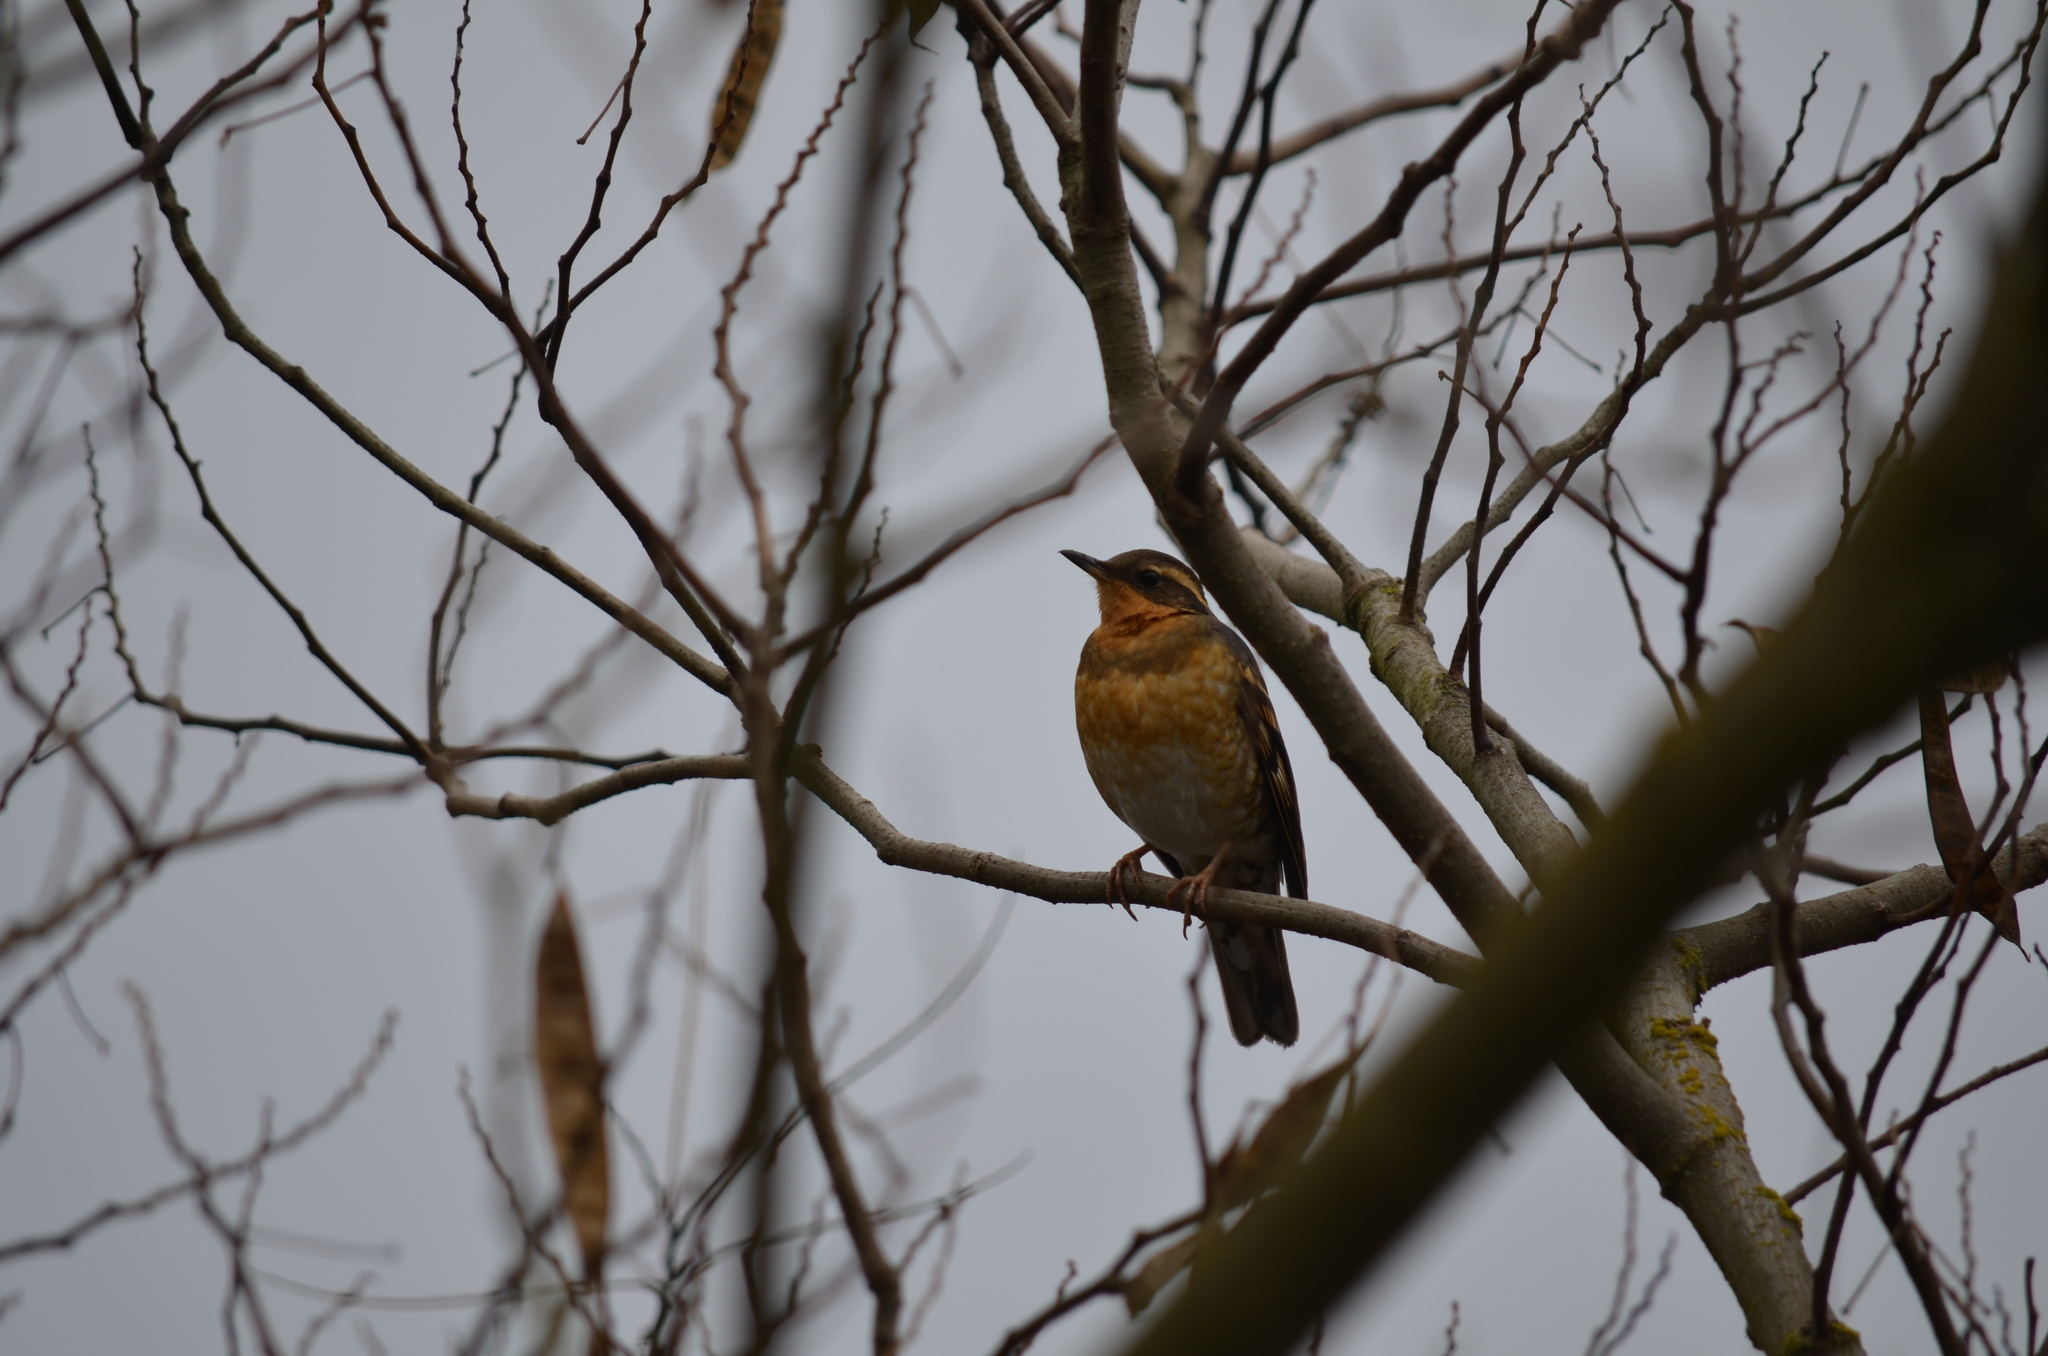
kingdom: Animalia
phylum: Chordata
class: Aves
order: Passeriformes
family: Turdidae
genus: Ixoreus
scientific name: Ixoreus naevius
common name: Varied thrush
